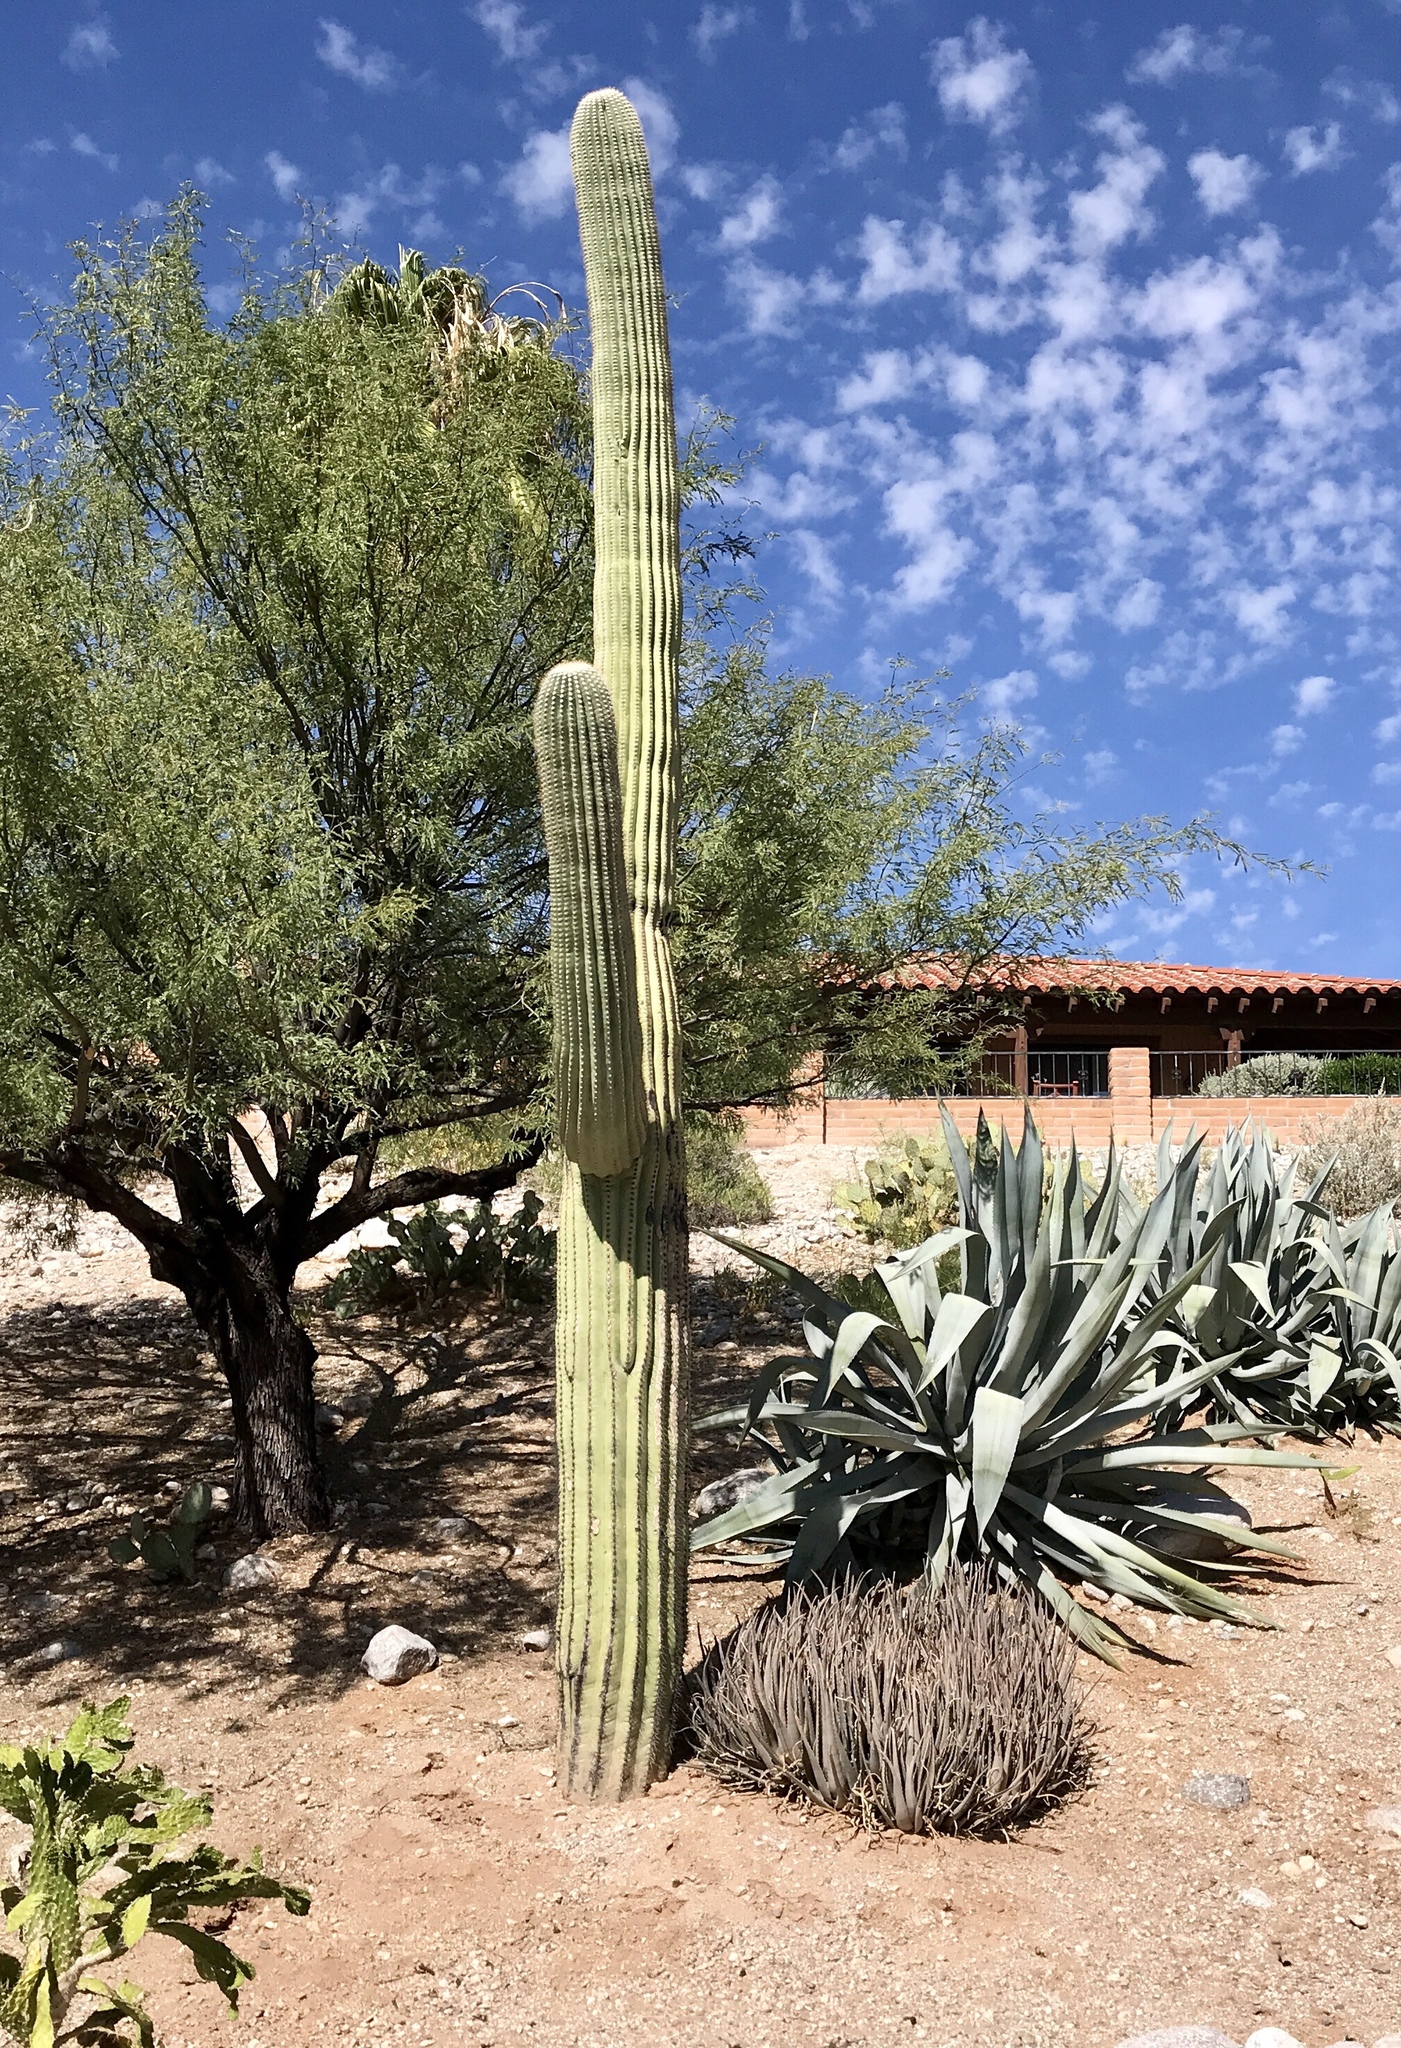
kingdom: Plantae
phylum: Tracheophyta
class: Magnoliopsida
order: Caryophyllales
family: Cactaceae
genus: Carnegiea
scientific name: Carnegiea gigantea
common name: Saguaro
